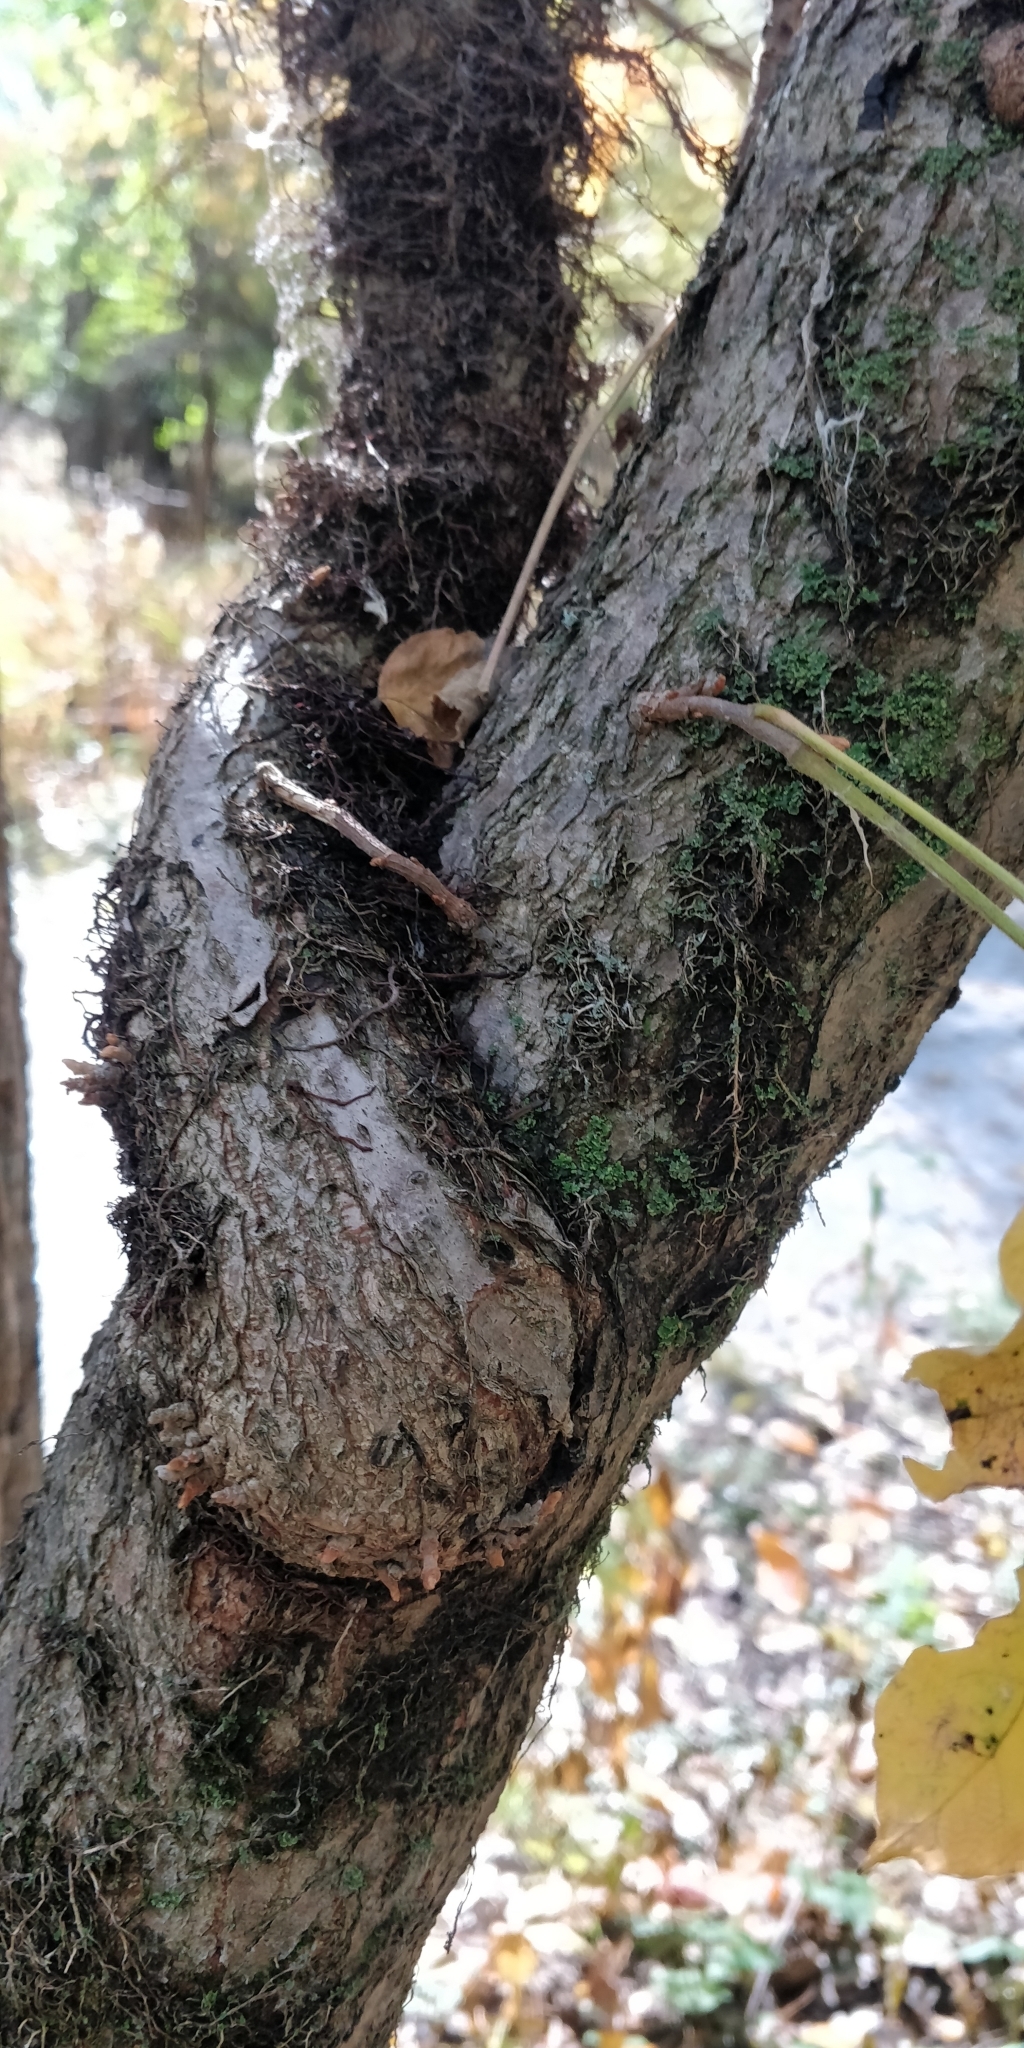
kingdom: Plantae
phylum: Tracheophyta
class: Magnoliopsida
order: Sapindales
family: Anacardiaceae
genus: Toxicodendron
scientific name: Toxicodendron radicans
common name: Poison ivy
